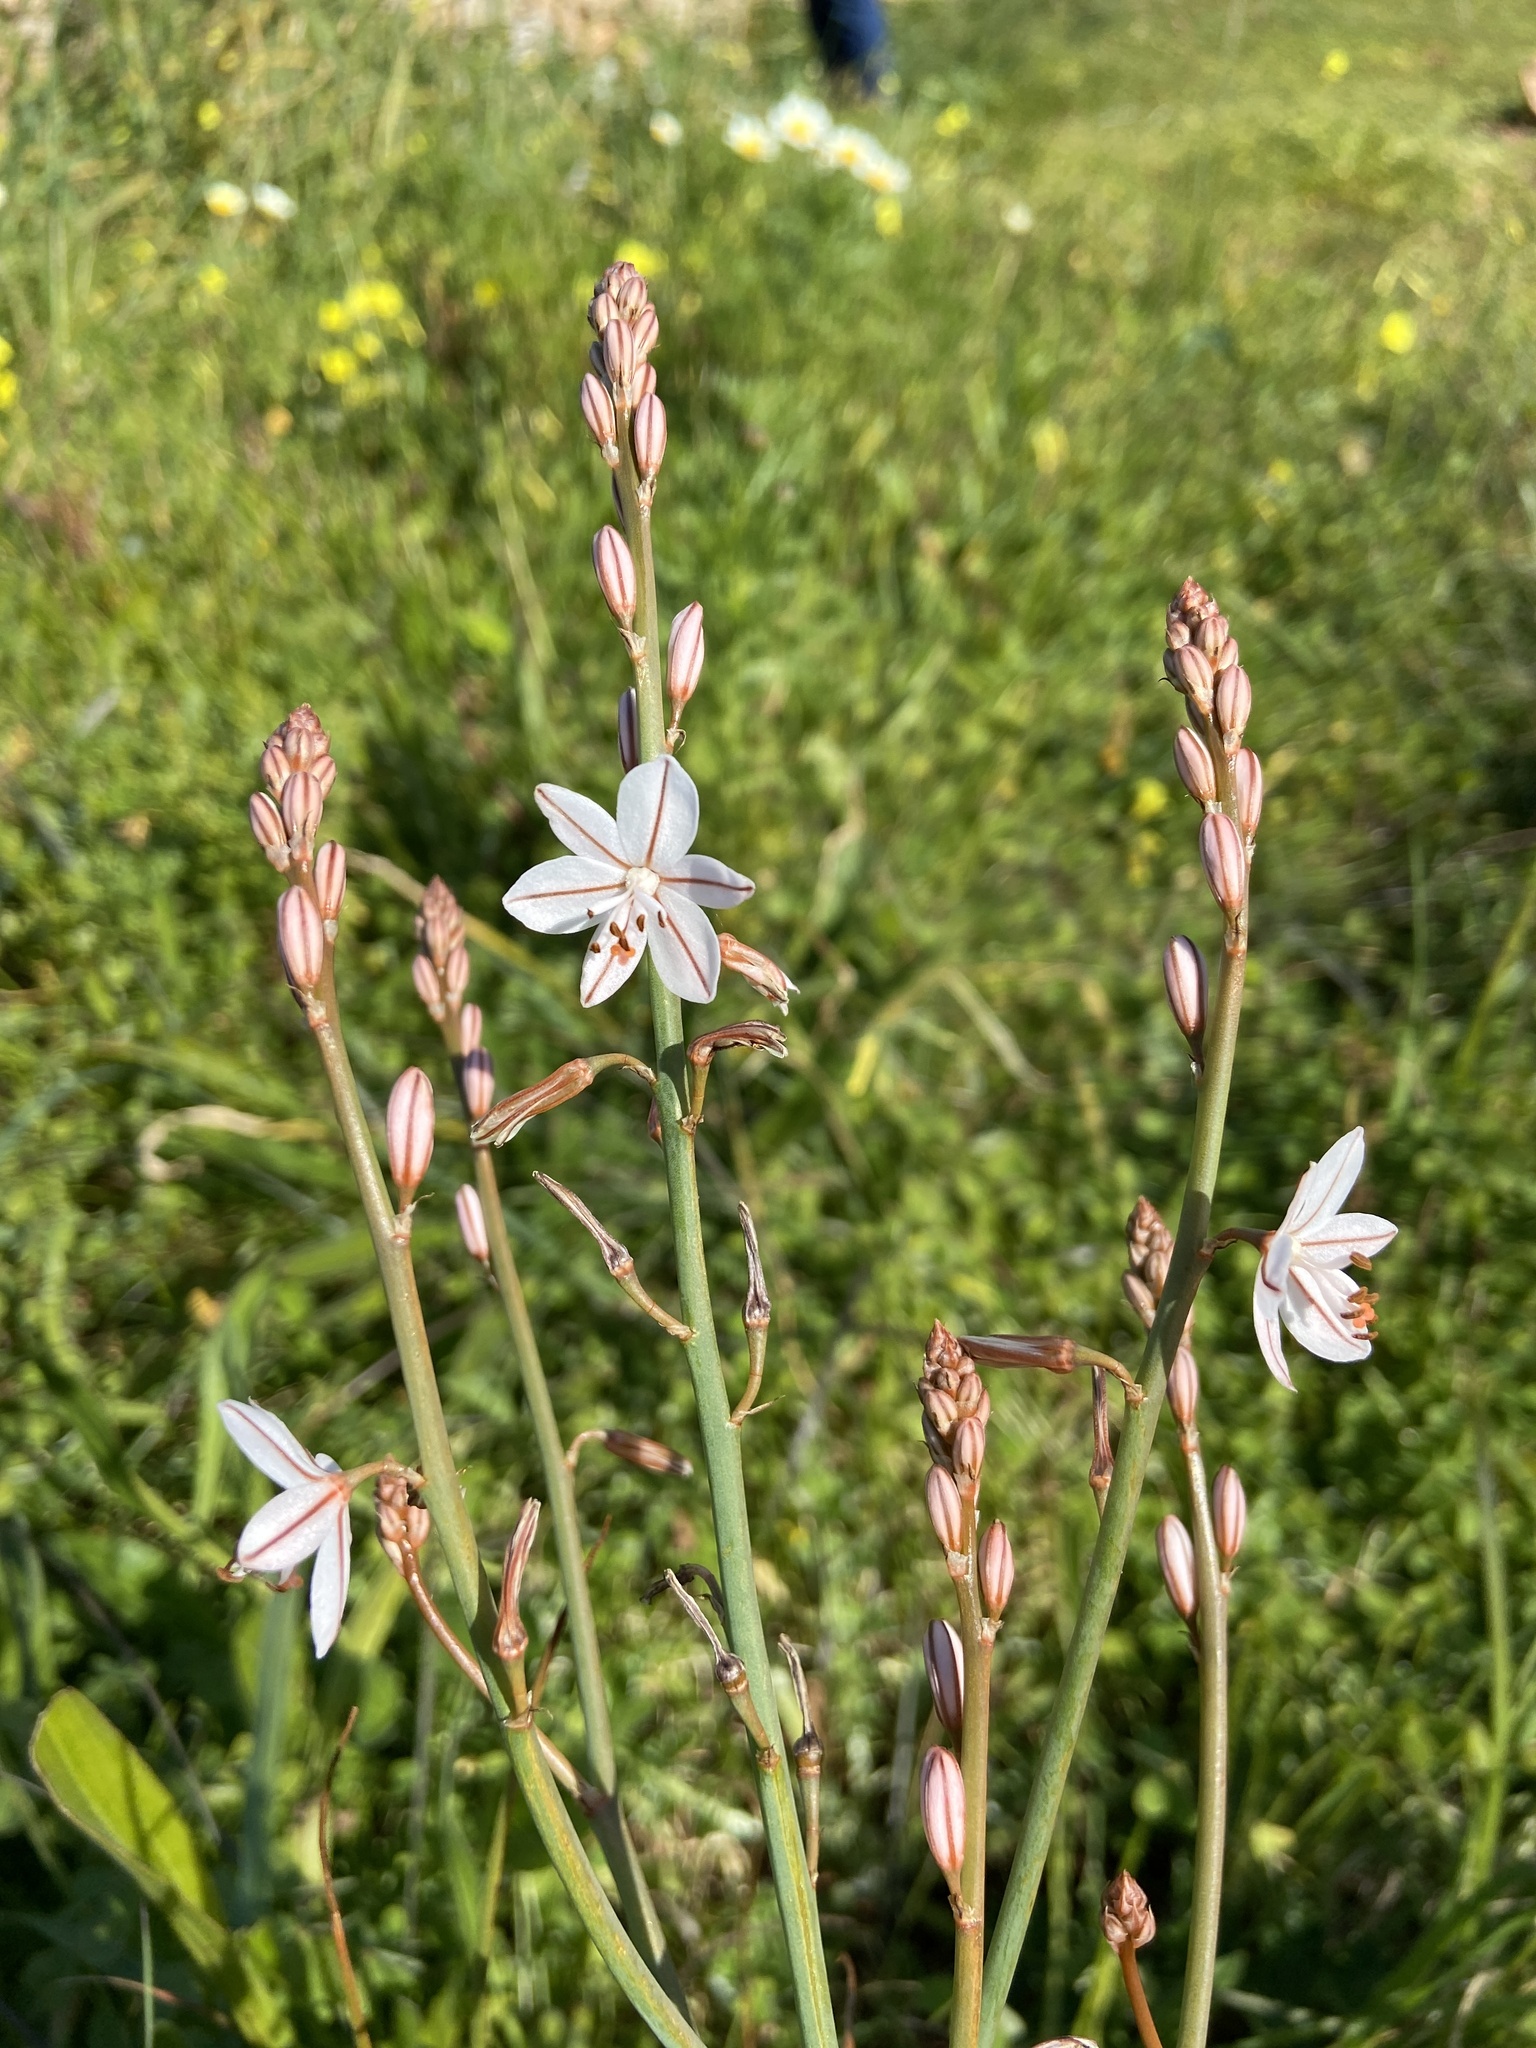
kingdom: Plantae
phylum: Tracheophyta
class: Liliopsida
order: Asparagales
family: Asphodelaceae
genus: Asphodelus
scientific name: Asphodelus fistulosus
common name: Onionweed
